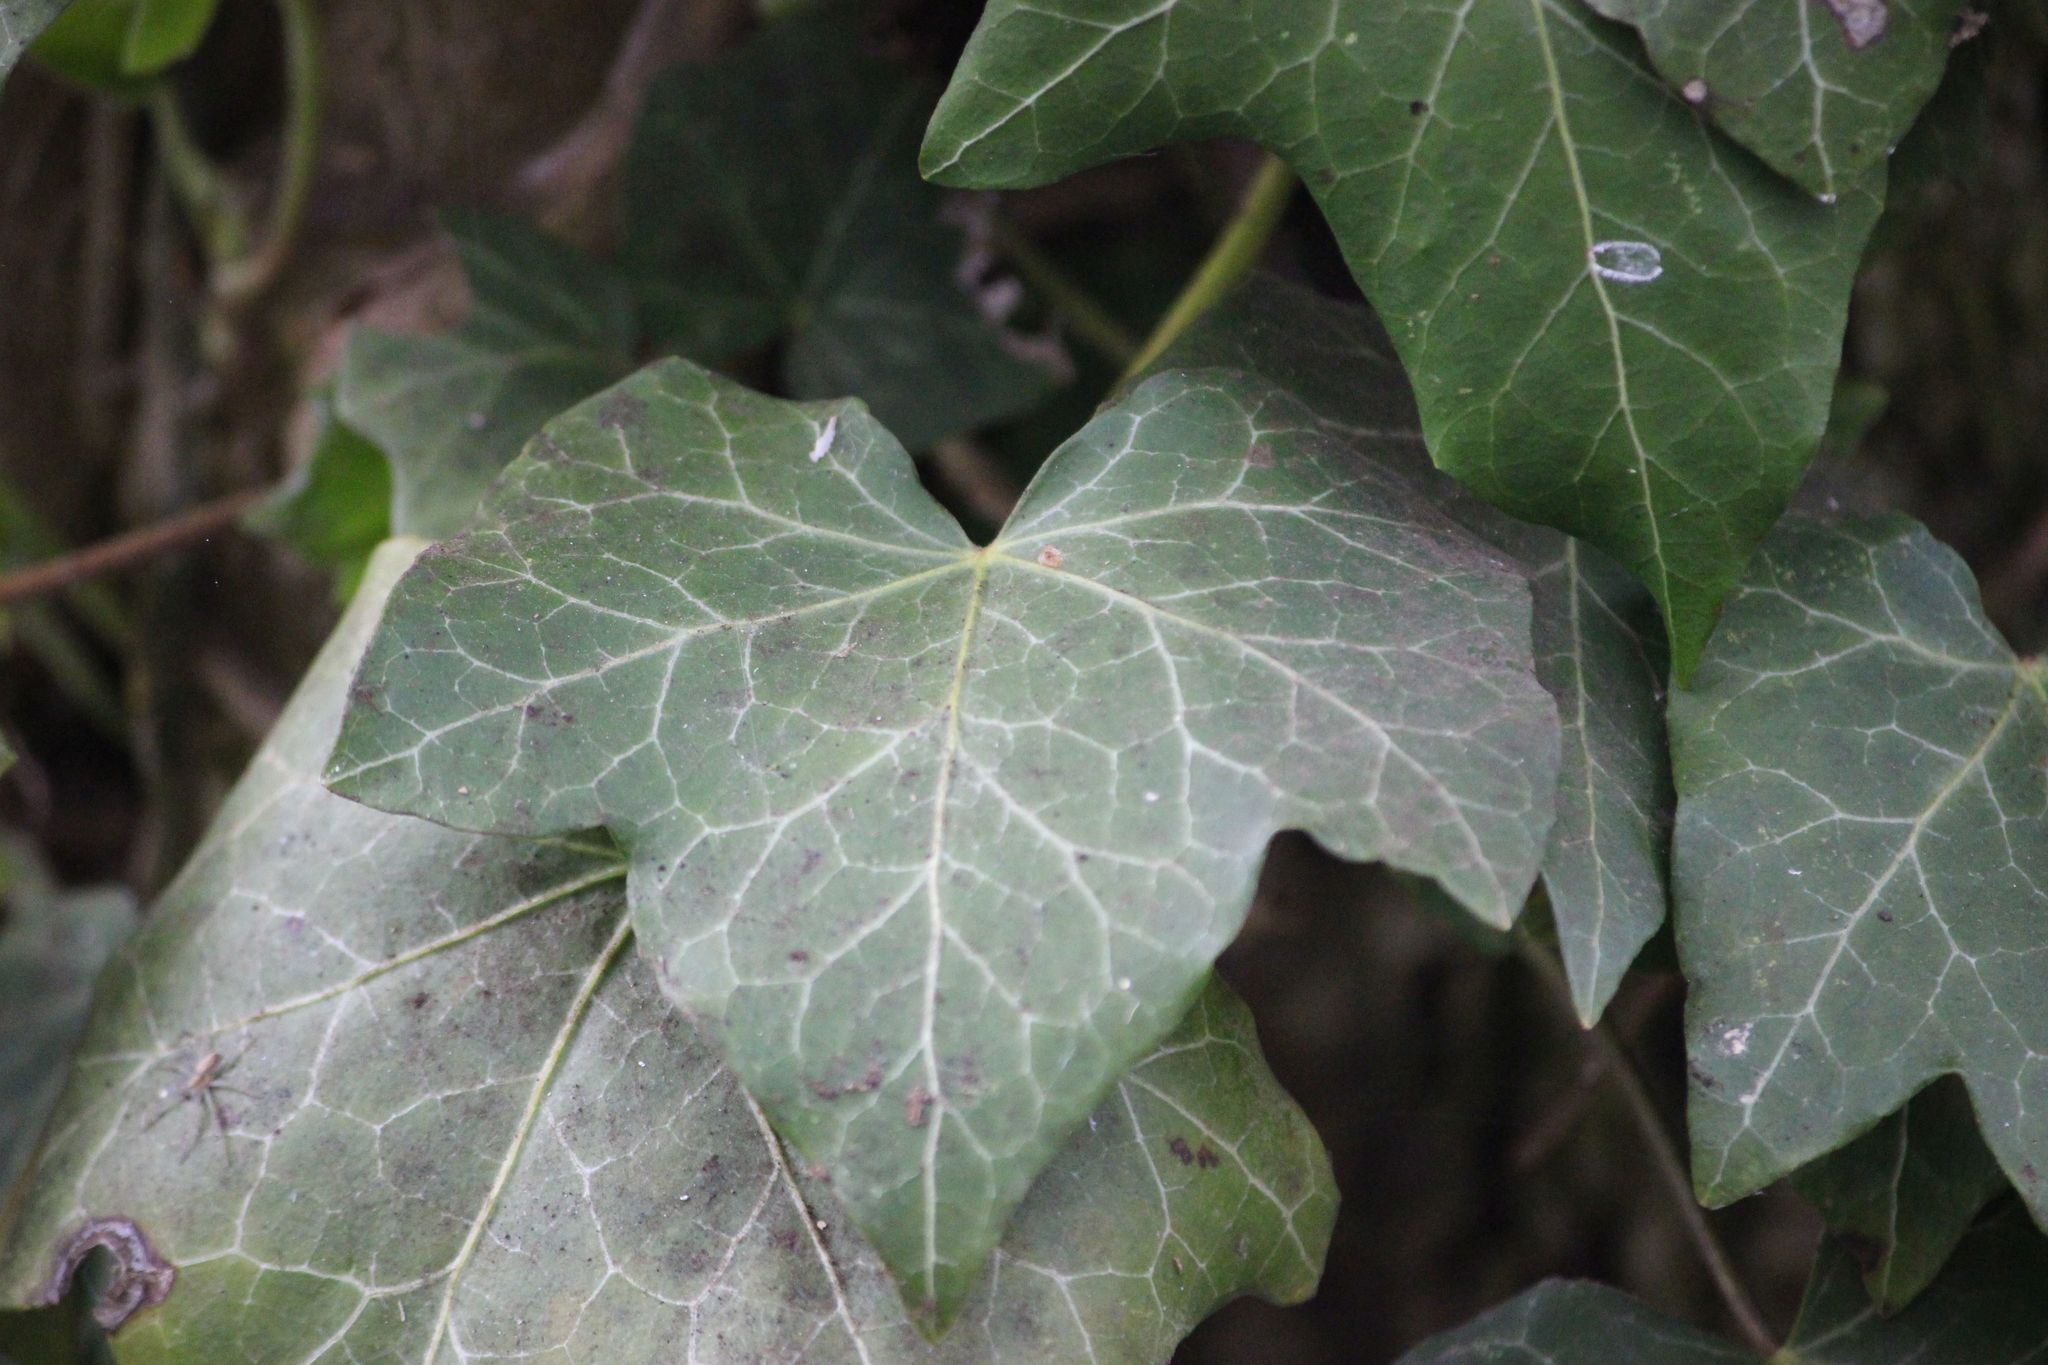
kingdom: Plantae
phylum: Tracheophyta
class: Magnoliopsida
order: Apiales
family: Araliaceae
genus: Hedera
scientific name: Hedera helix
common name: Ivy
